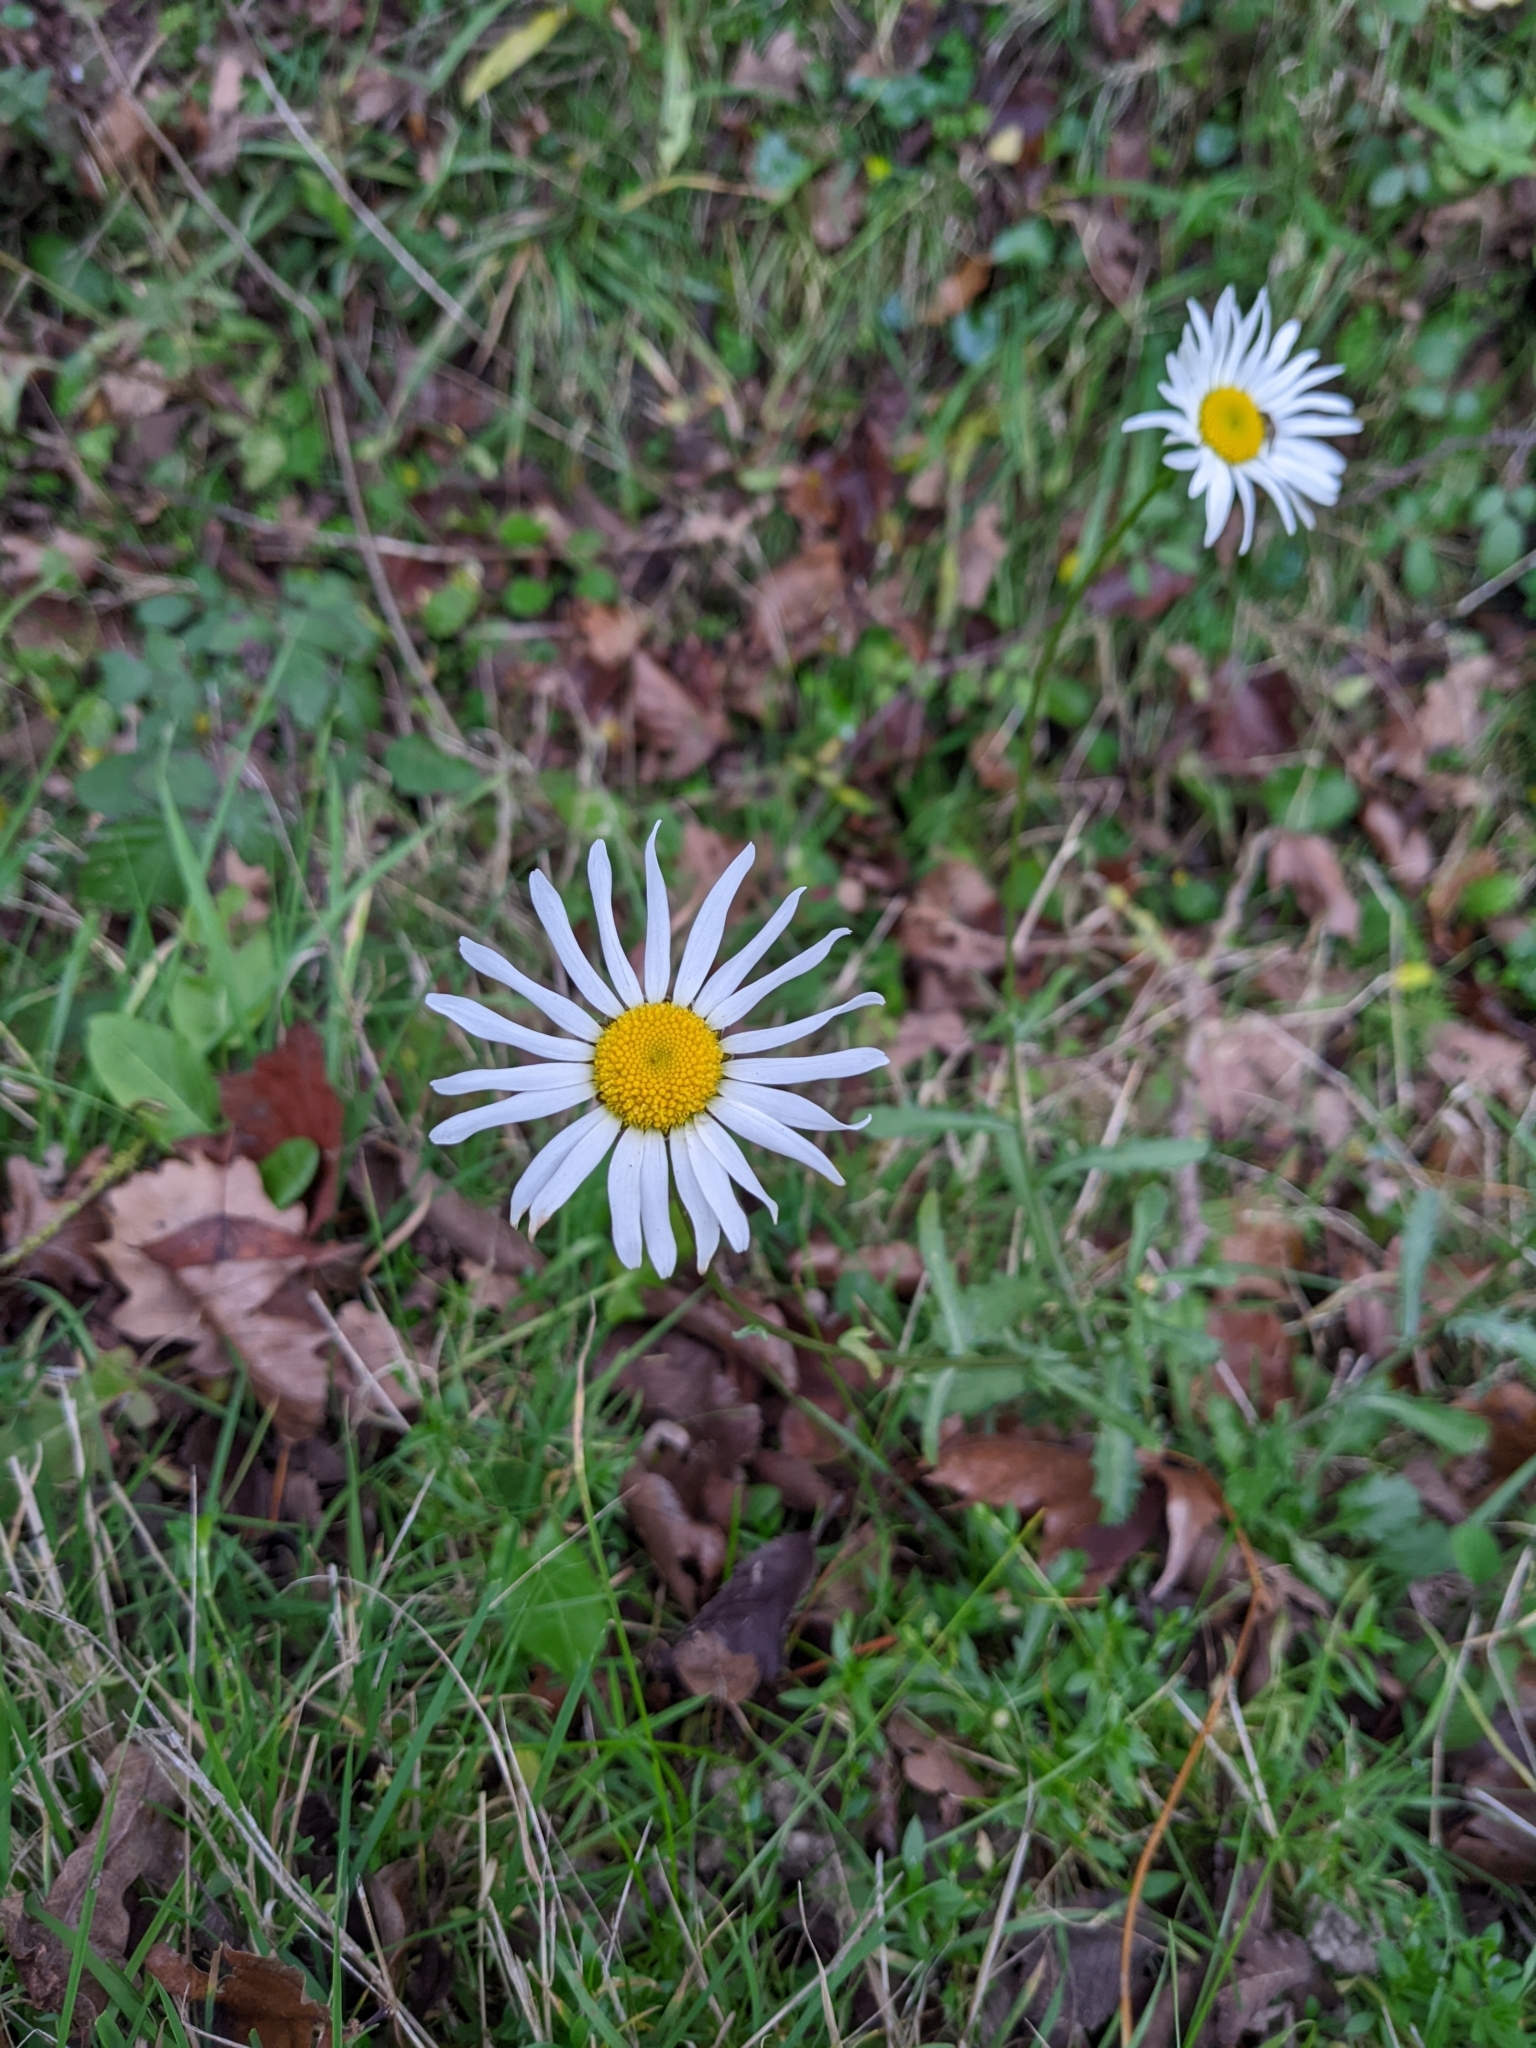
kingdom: Plantae
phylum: Tracheophyta
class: Magnoliopsida
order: Asterales
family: Asteraceae
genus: Leucanthemum
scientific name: Leucanthemum vulgare
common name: Oxeye daisy
